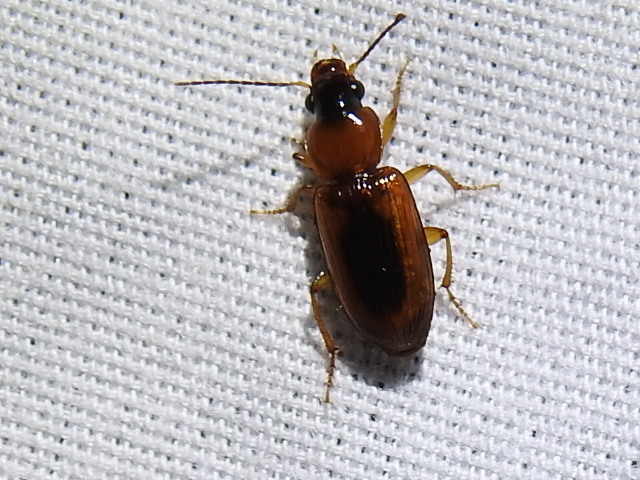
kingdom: Animalia
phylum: Arthropoda
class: Insecta
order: Coleoptera
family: Carabidae
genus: Stenolophus
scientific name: Stenolophus dissimilis
